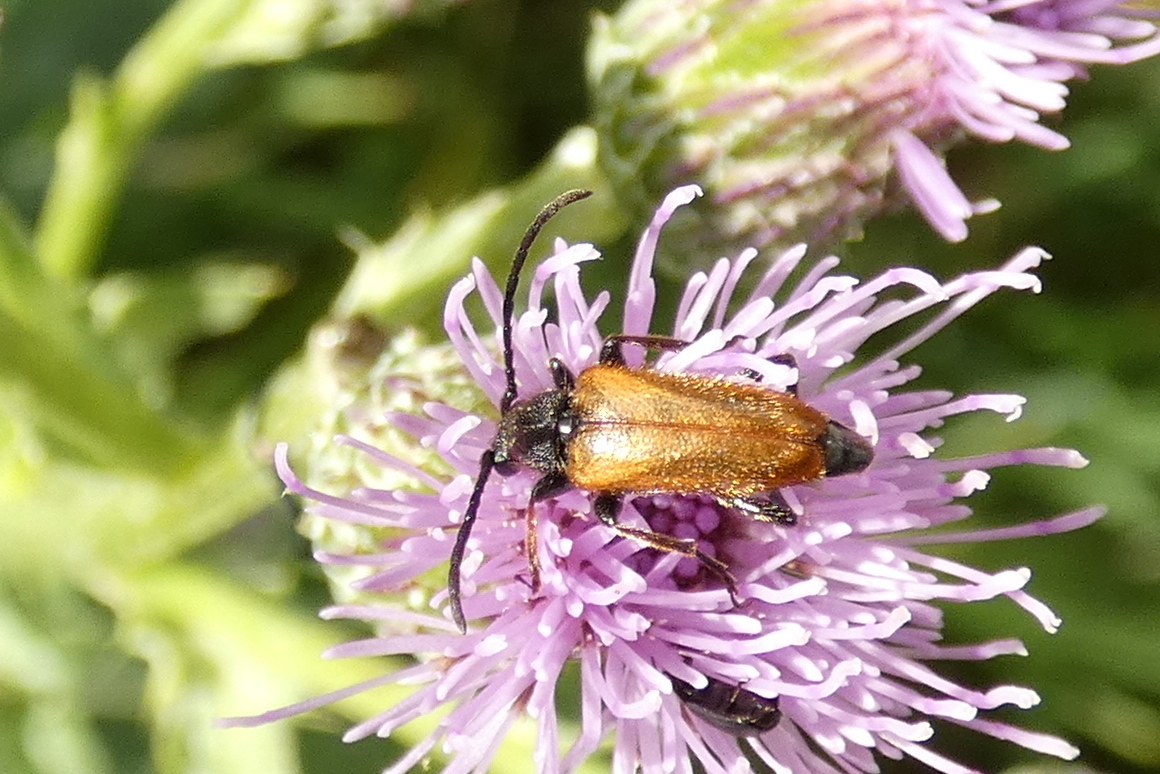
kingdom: Animalia
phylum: Arthropoda
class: Insecta
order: Coleoptera
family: Cerambycidae
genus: Pseudovadonia
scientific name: Pseudovadonia livida
